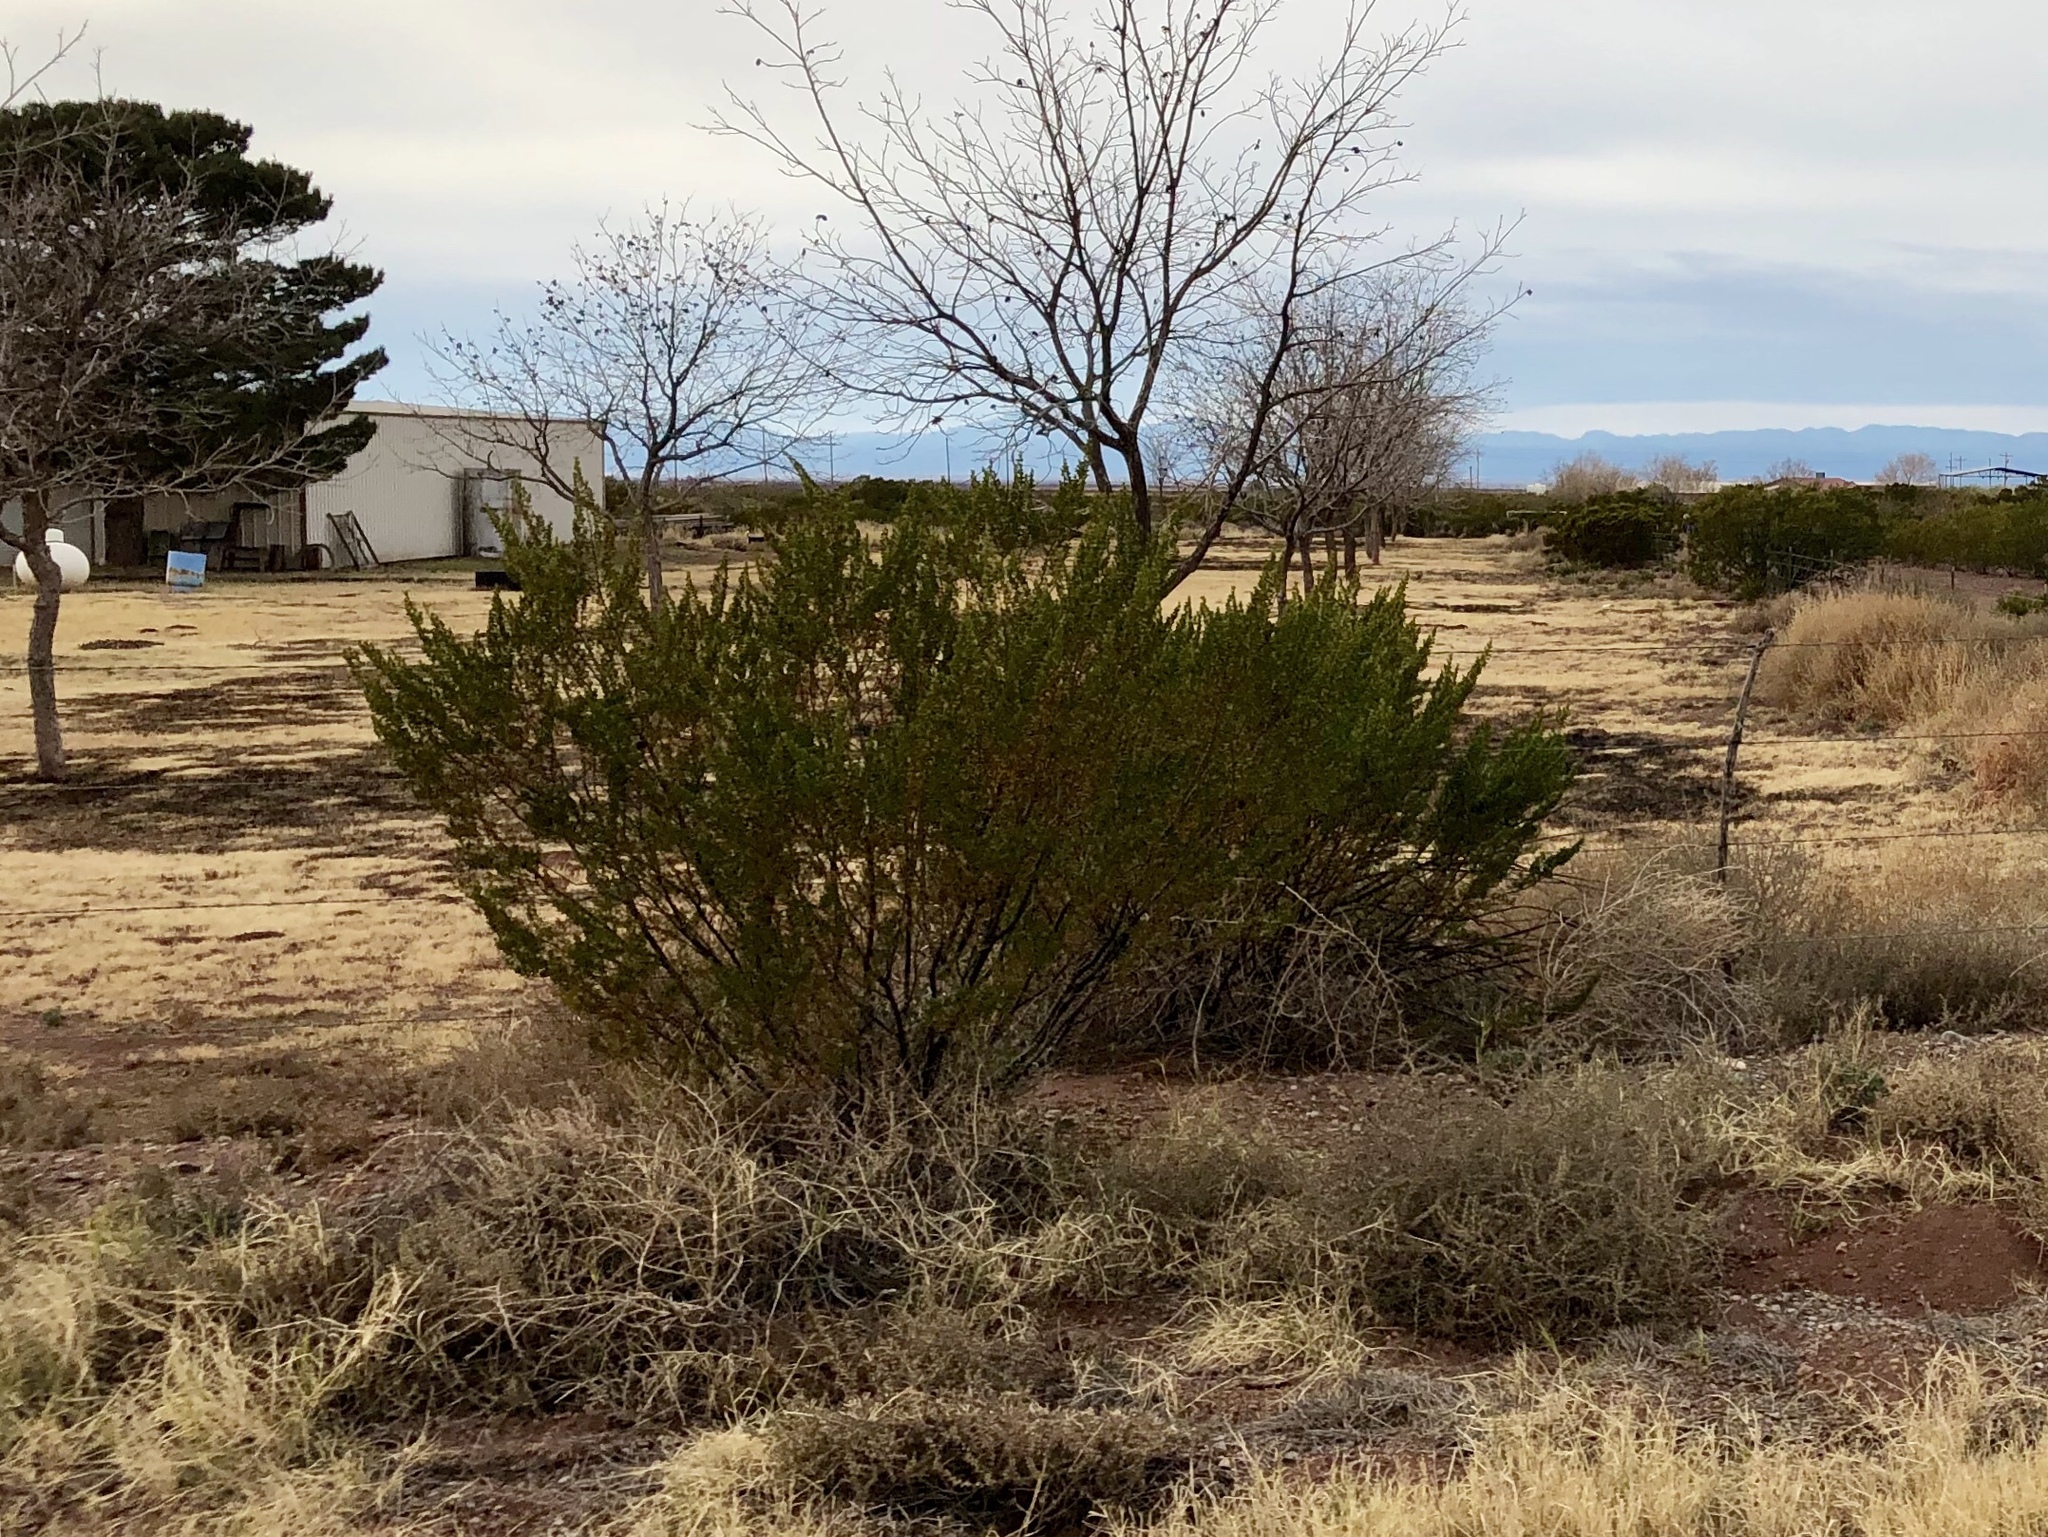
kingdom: Plantae
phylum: Tracheophyta
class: Magnoliopsida
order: Zygophyllales
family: Zygophyllaceae
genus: Larrea
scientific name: Larrea tridentata
